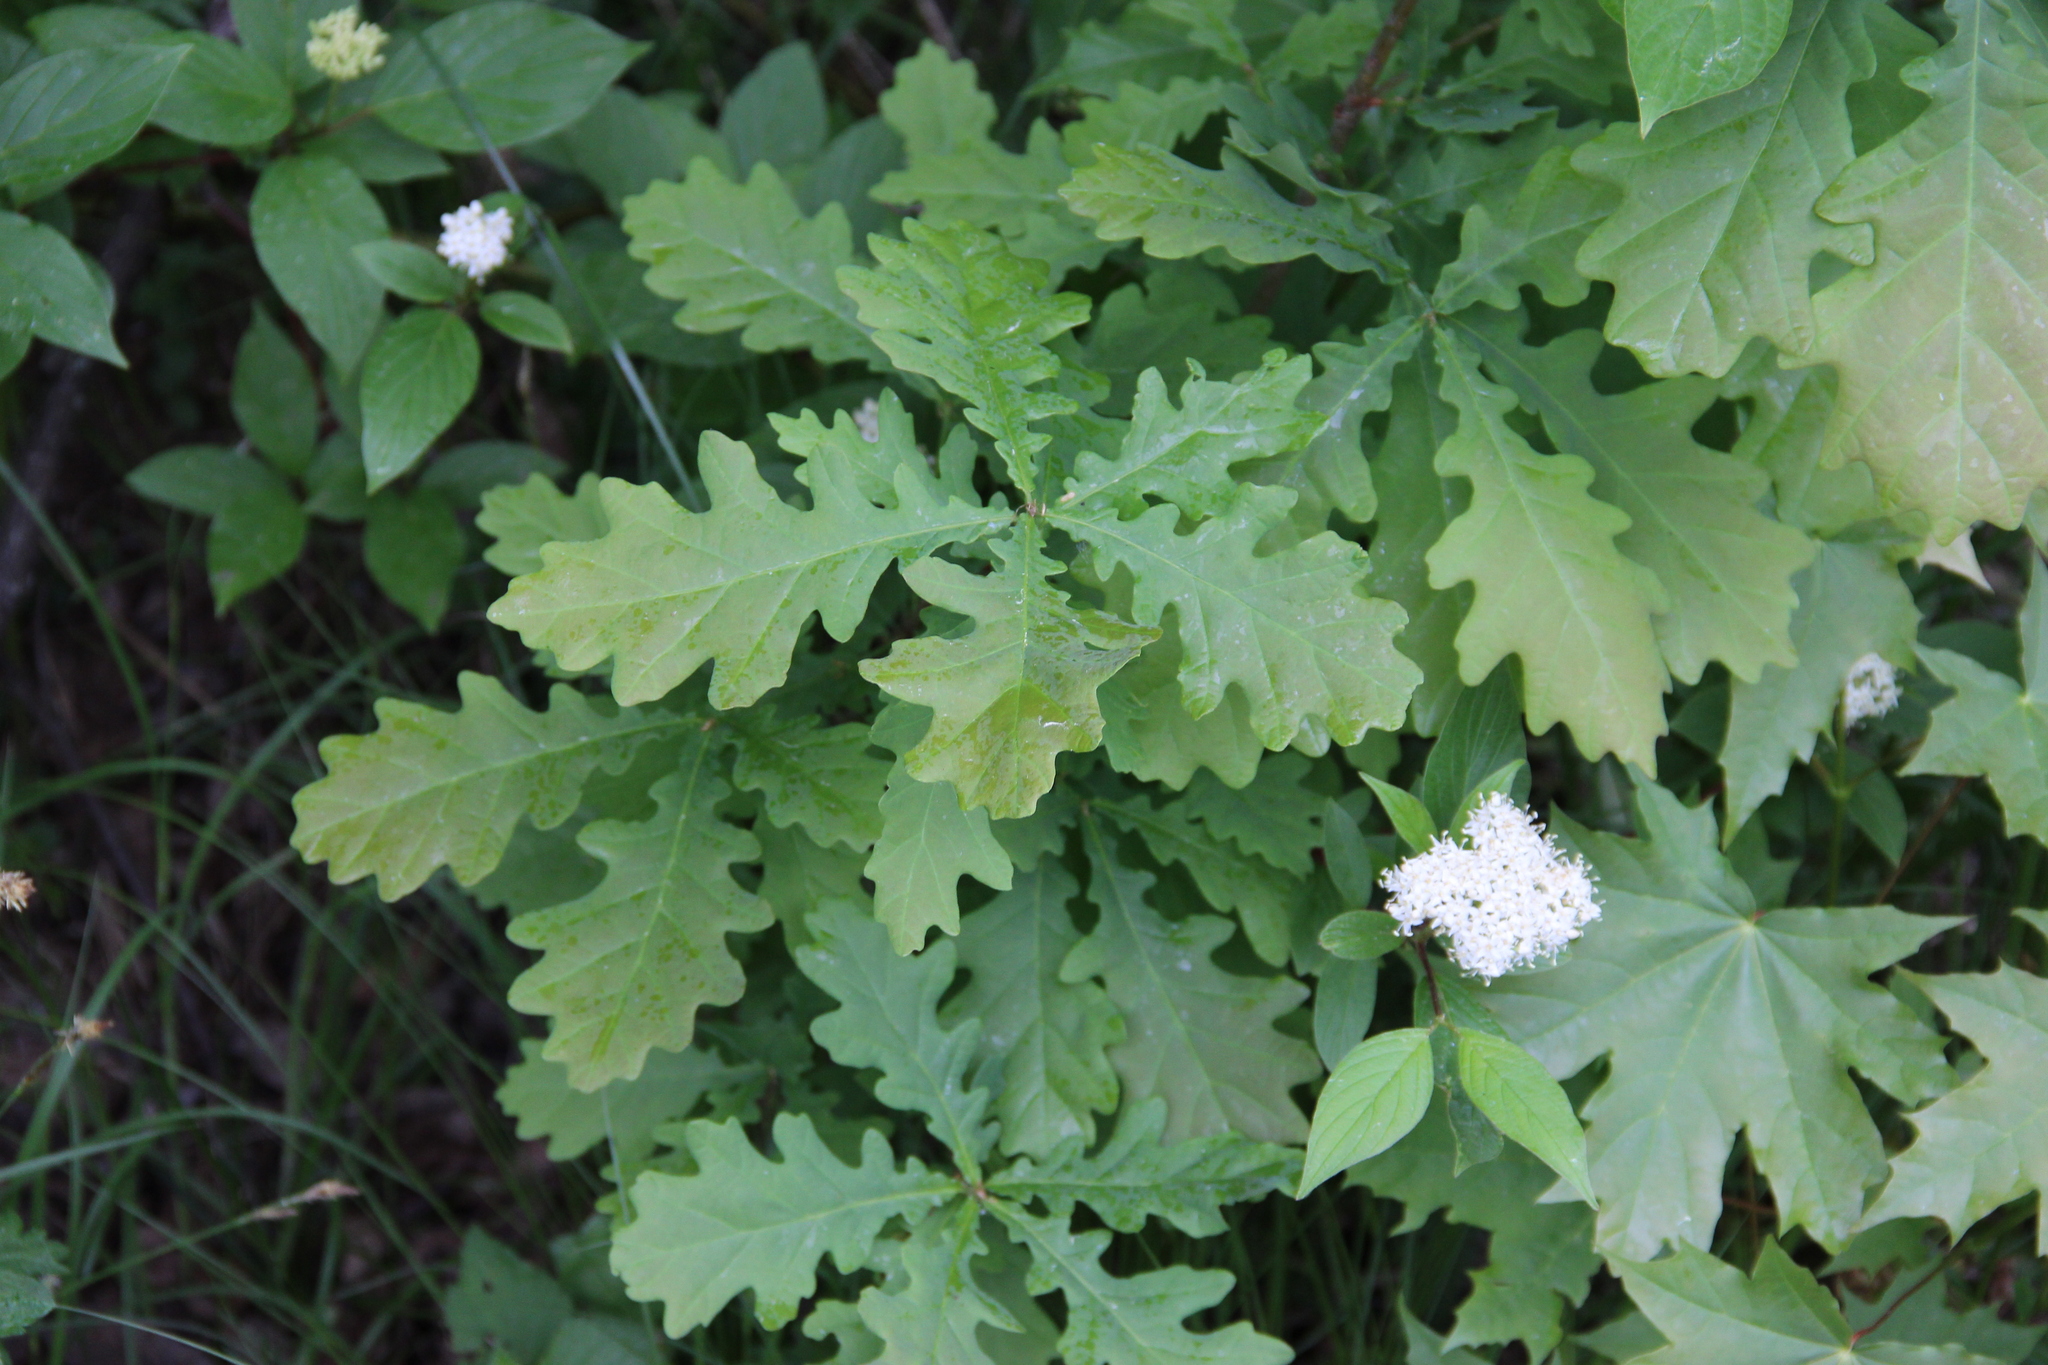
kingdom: Plantae
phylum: Tracheophyta
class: Magnoliopsida
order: Fagales
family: Fagaceae
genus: Quercus
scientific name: Quercus robur
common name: Pedunculate oak
